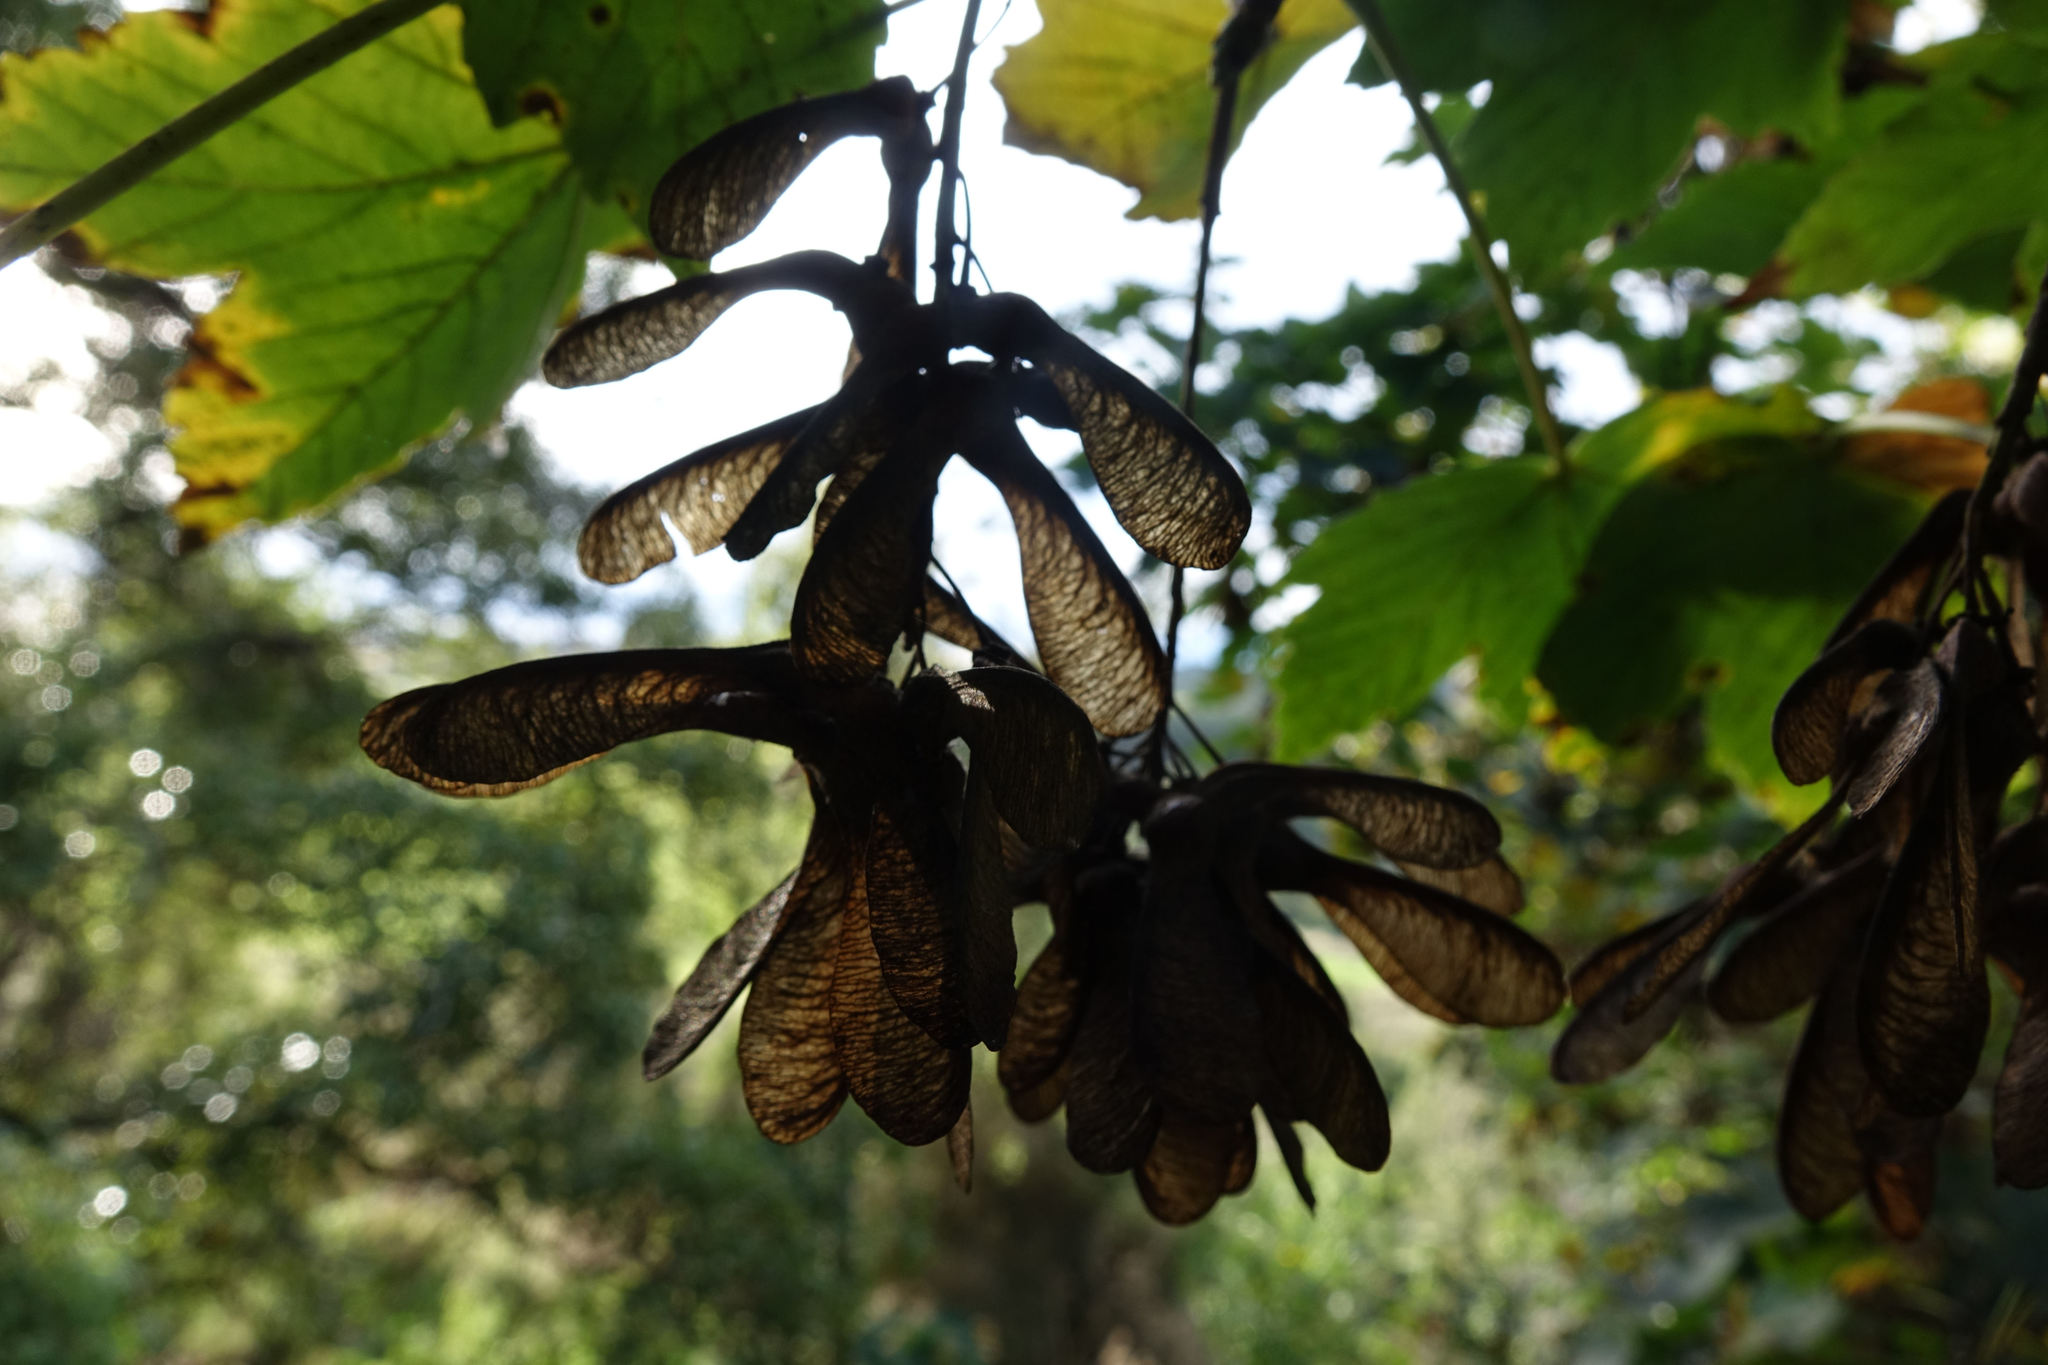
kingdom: Plantae
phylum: Tracheophyta
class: Magnoliopsida
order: Sapindales
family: Sapindaceae
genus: Acer
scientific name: Acer pseudoplatanus
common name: Sycamore
